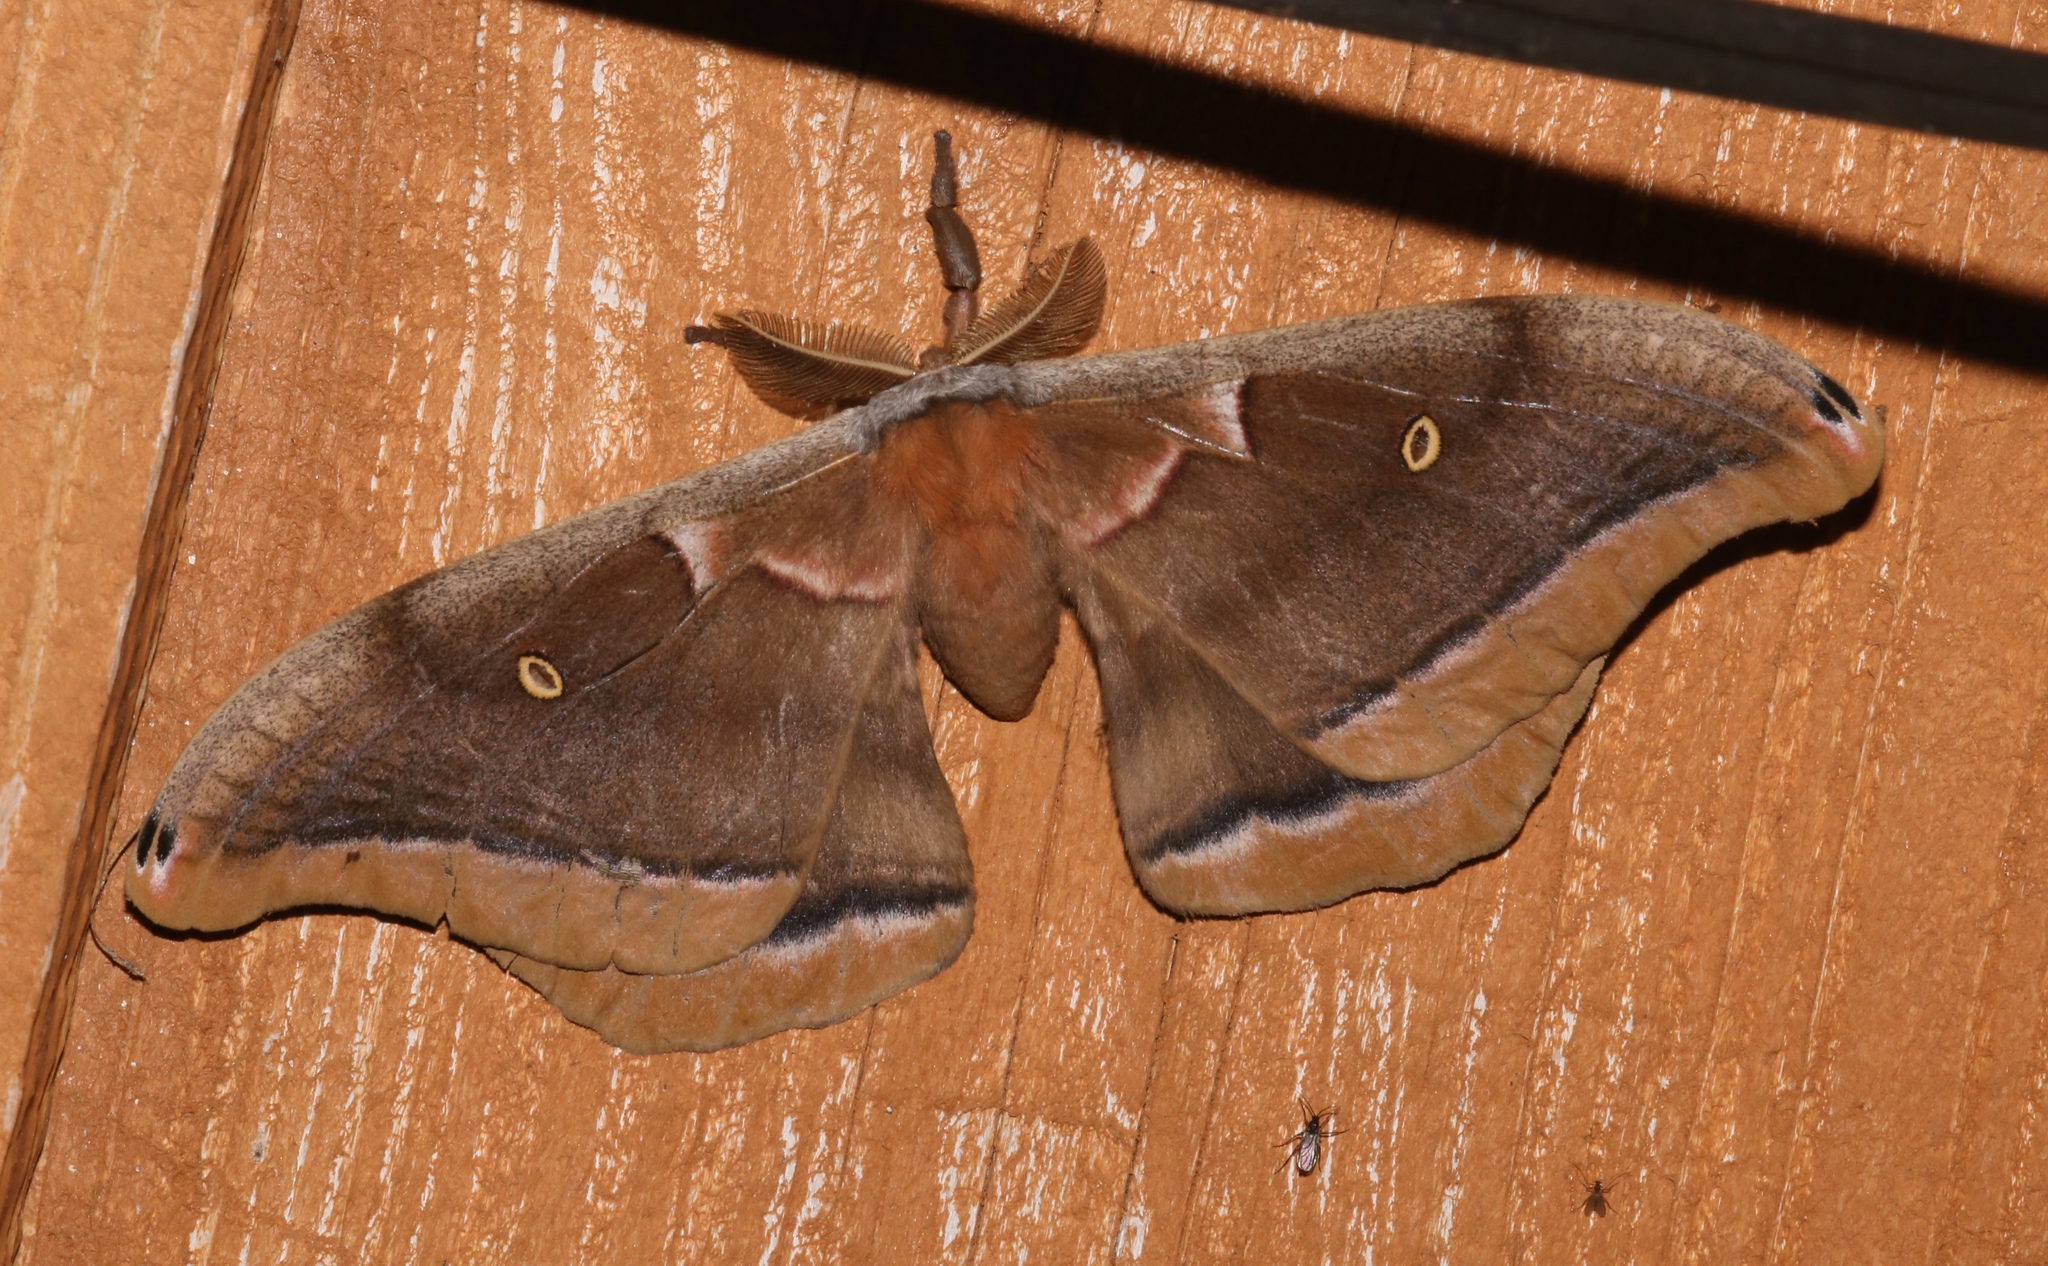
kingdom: Animalia
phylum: Arthropoda
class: Insecta
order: Lepidoptera
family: Saturniidae
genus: Antheraea
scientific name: Antheraea polyphemus
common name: Polyphemus moth
